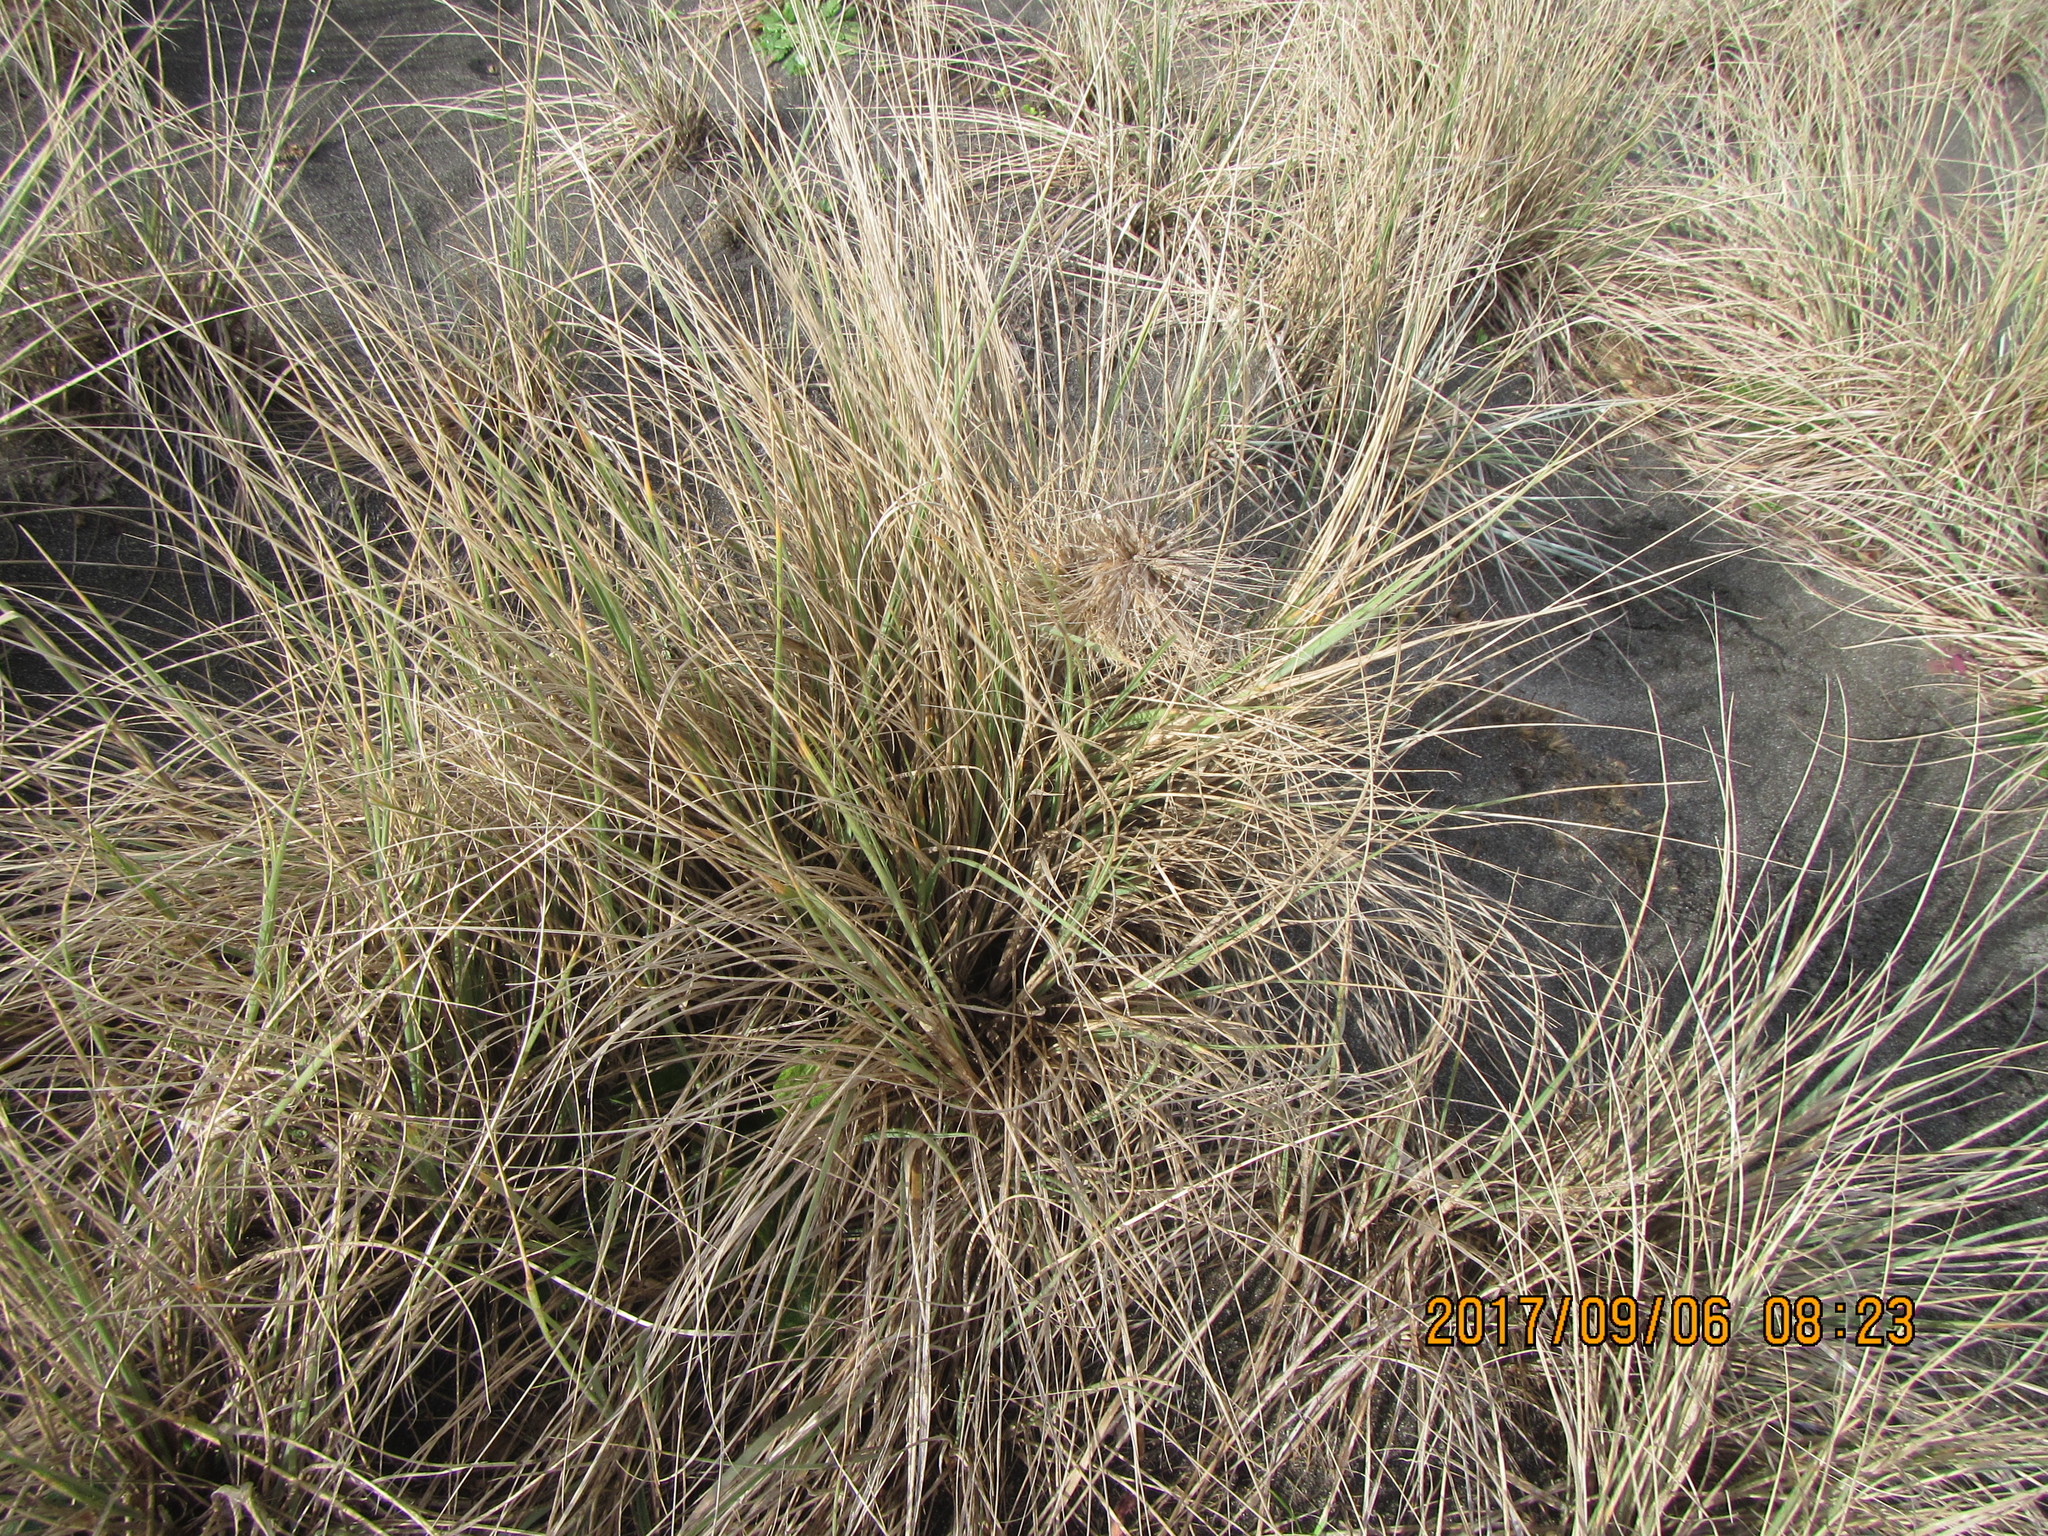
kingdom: Plantae
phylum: Tracheophyta
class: Liliopsida
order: Poales
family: Poaceae
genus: Spinifex
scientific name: Spinifex sericeus
